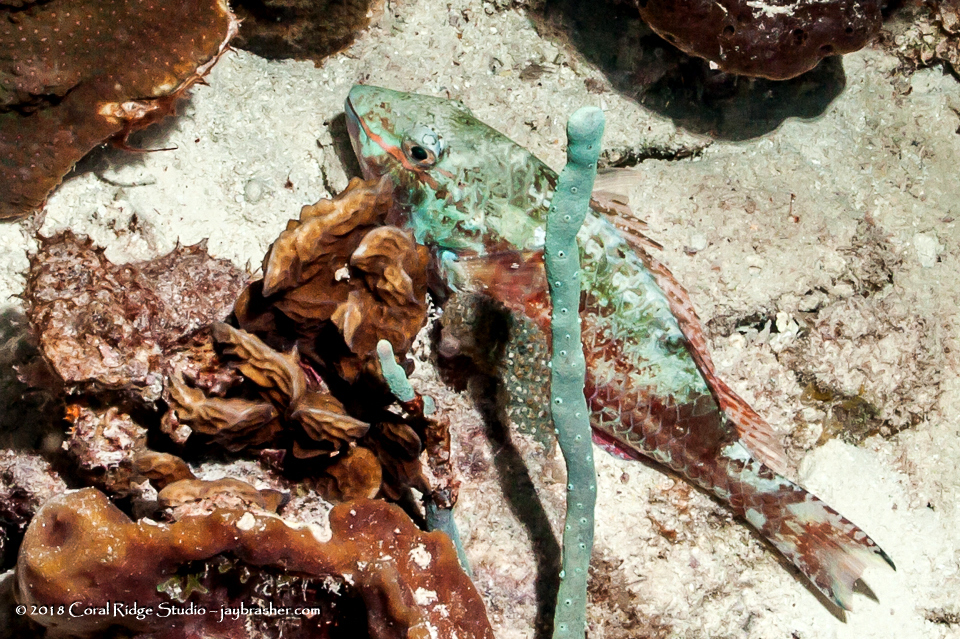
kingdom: Animalia
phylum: Chordata
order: Perciformes
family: Scaridae
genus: Sparisoma
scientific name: Sparisoma aurofrenatum
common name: Redband parrotfish
